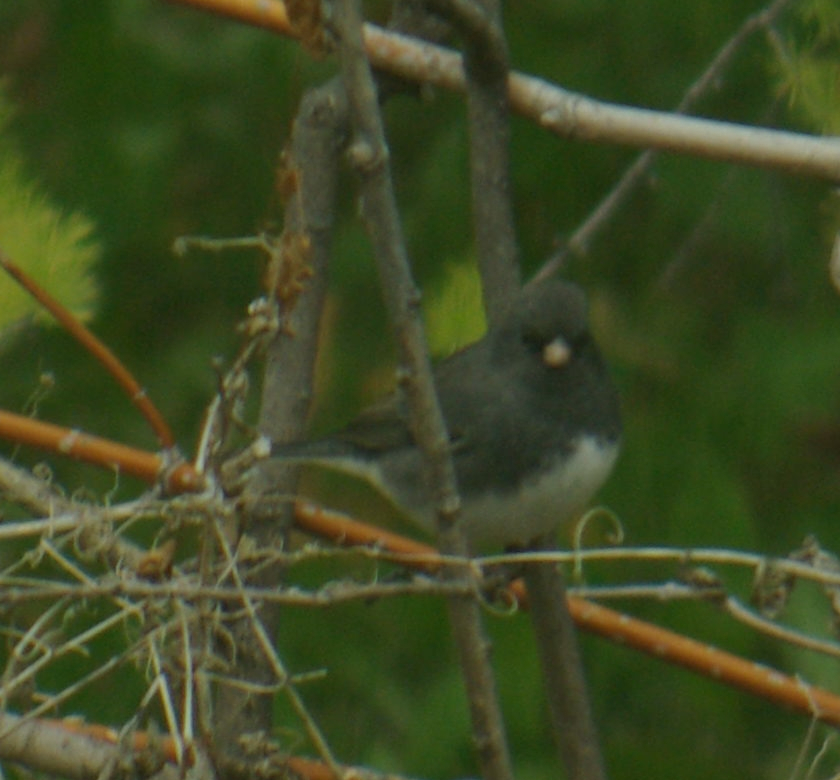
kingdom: Animalia
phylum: Chordata
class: Aves
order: Passeriformes
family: Passerellidae
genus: Junco
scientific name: Junco hyemalis
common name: Dark-eyed junco
